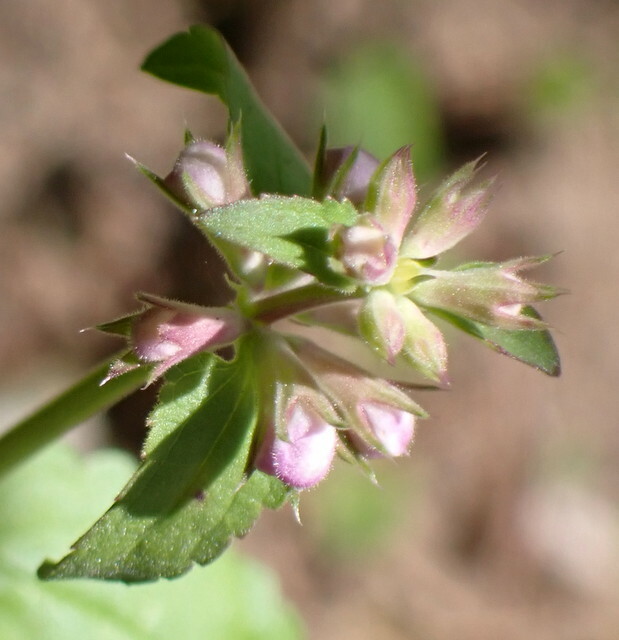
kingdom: Plantae
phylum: Tracheophyta
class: Magnoliopsida
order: Lamiales
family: Lamiaceae
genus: Stachys
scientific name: Stachys floridana
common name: Florida betony
